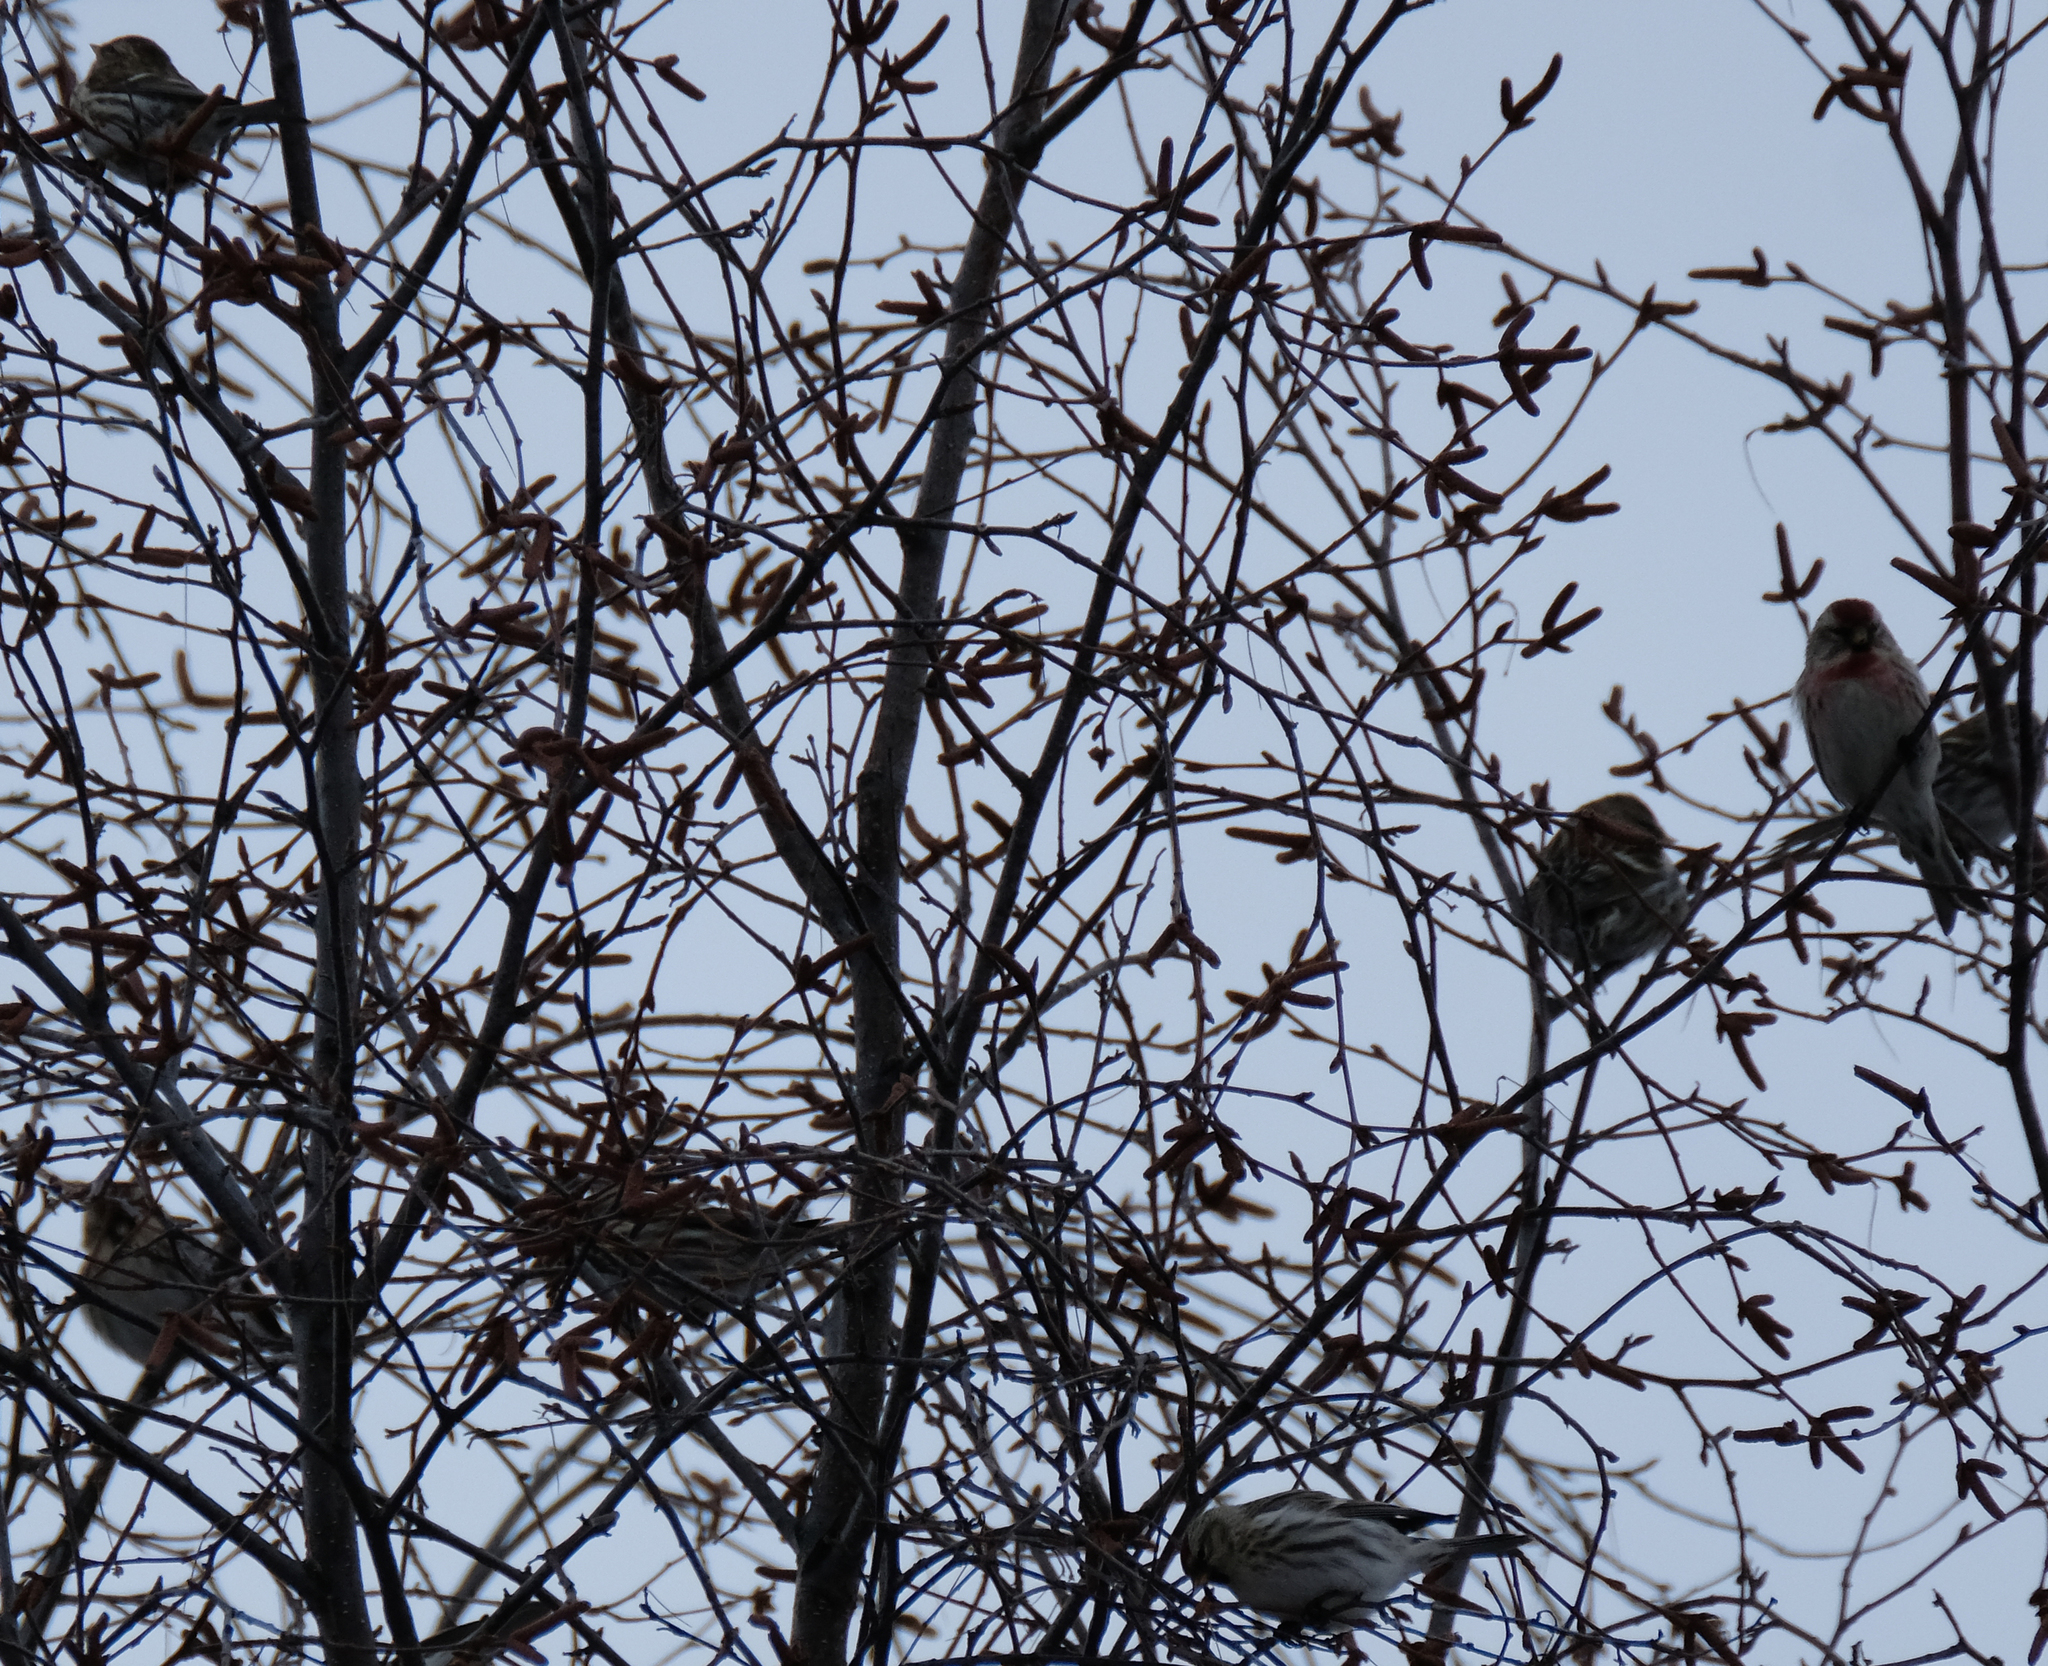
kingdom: Animalia
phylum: Chordata
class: Aves
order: Passeriformes
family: Fringillidae
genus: Acanthis
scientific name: Acanthis flammea
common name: Common redpoll
